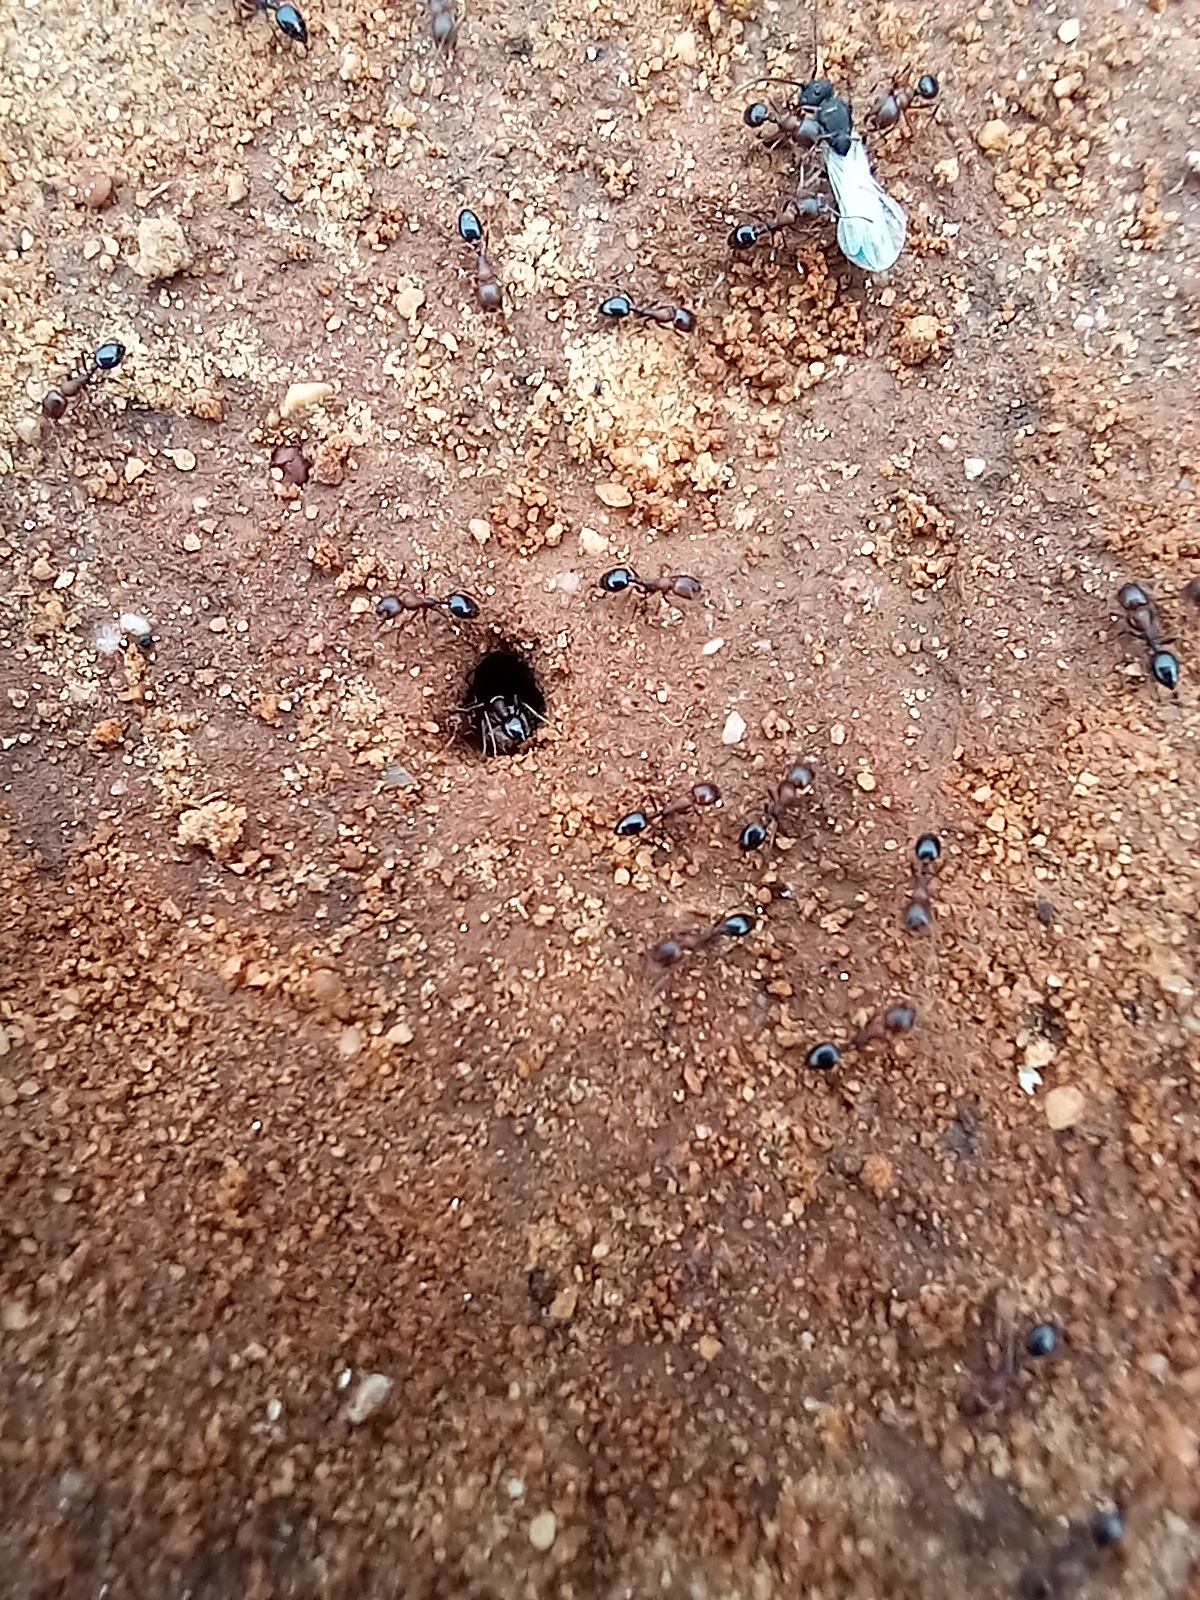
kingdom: Animalia
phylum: Arthropoda
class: Insecta
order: Hymenoptera
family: Formicidae
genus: Monomorium
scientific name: Monomorium junodi
